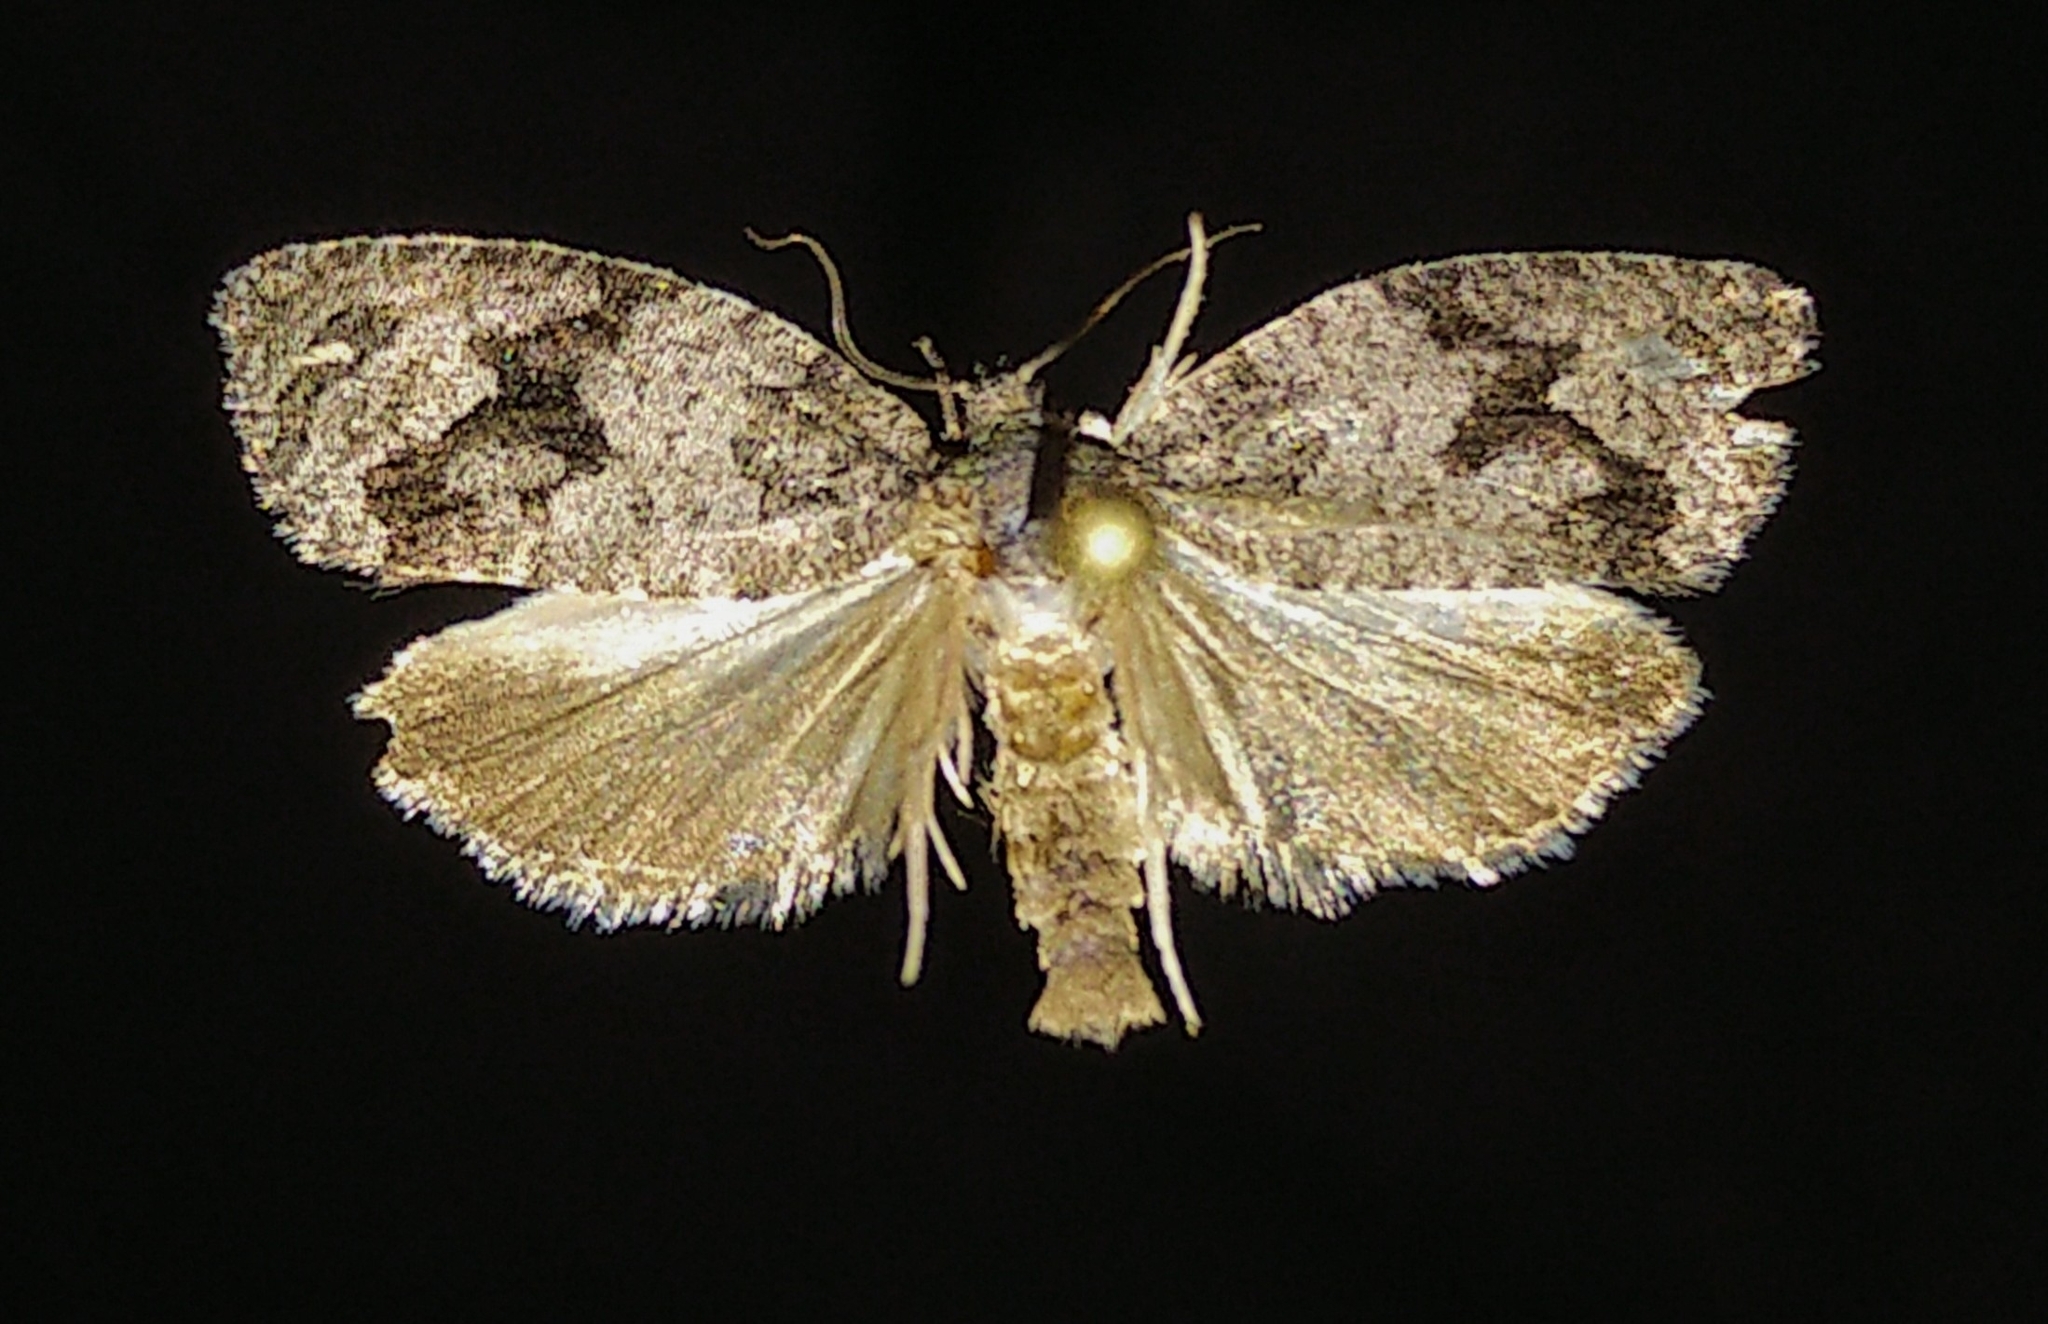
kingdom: Animalia
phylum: Arthropoda
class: Insecta
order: Lepidoptera
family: Tortricidae
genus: Apotomis
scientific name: Apotomis removana
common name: Green aspen leafroller
